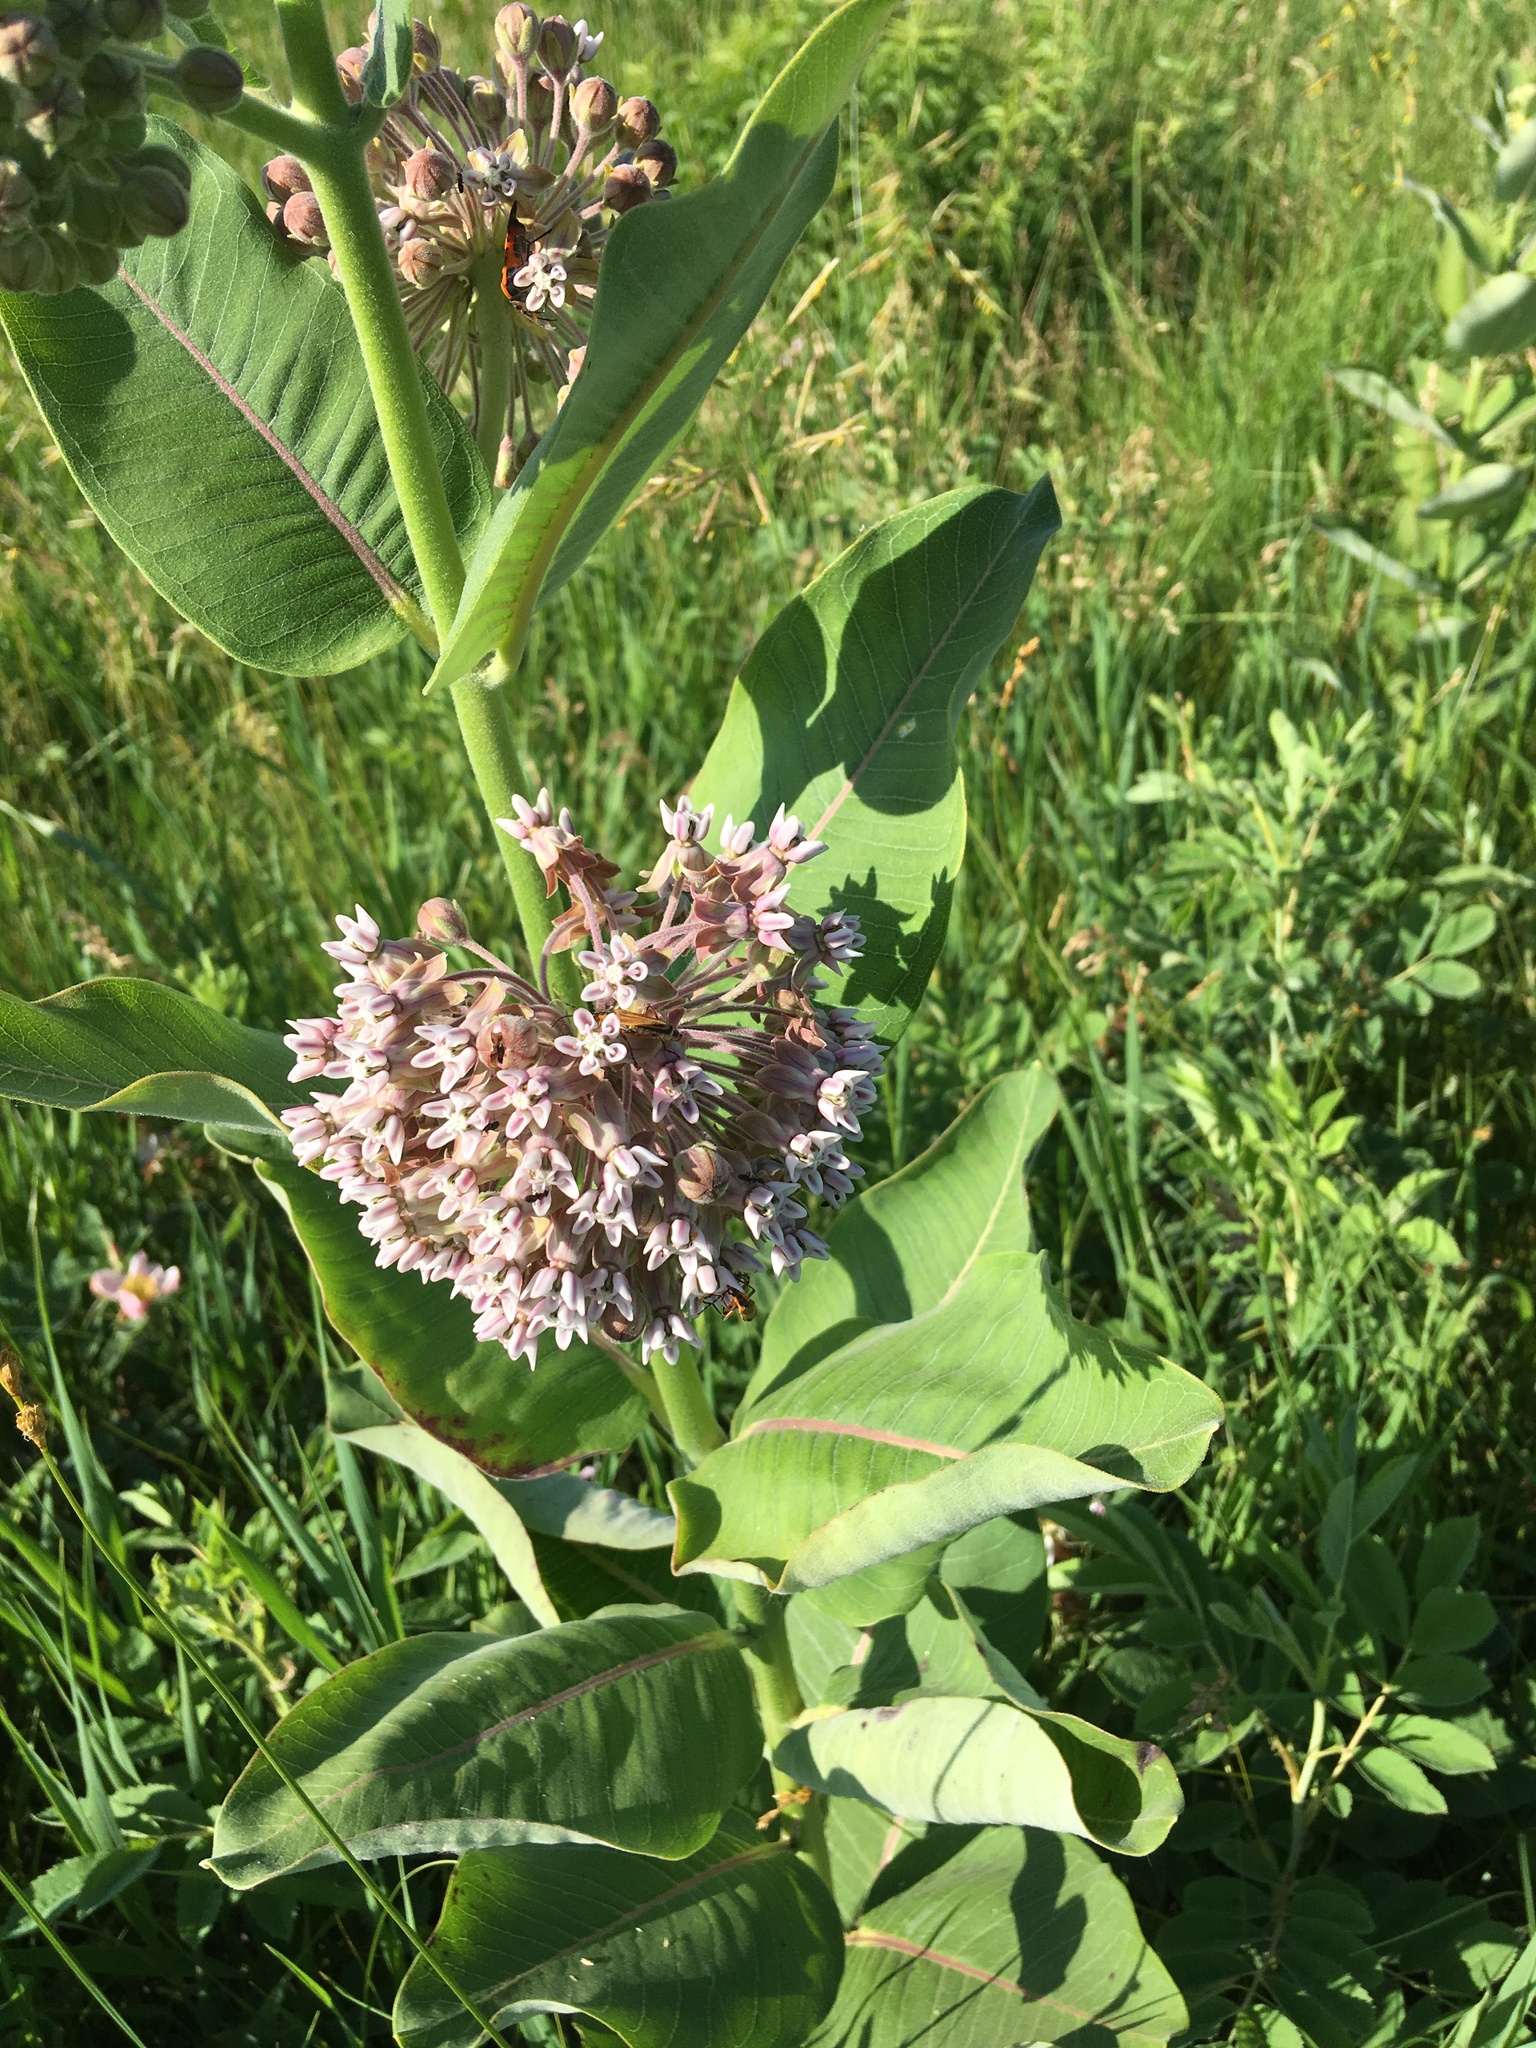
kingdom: Plantae
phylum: Tracheophyta
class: Magnoliopsida
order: Gentianales
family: Apocynaceae
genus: Asclepias
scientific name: Asclepias syriaca
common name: Common milkweed
